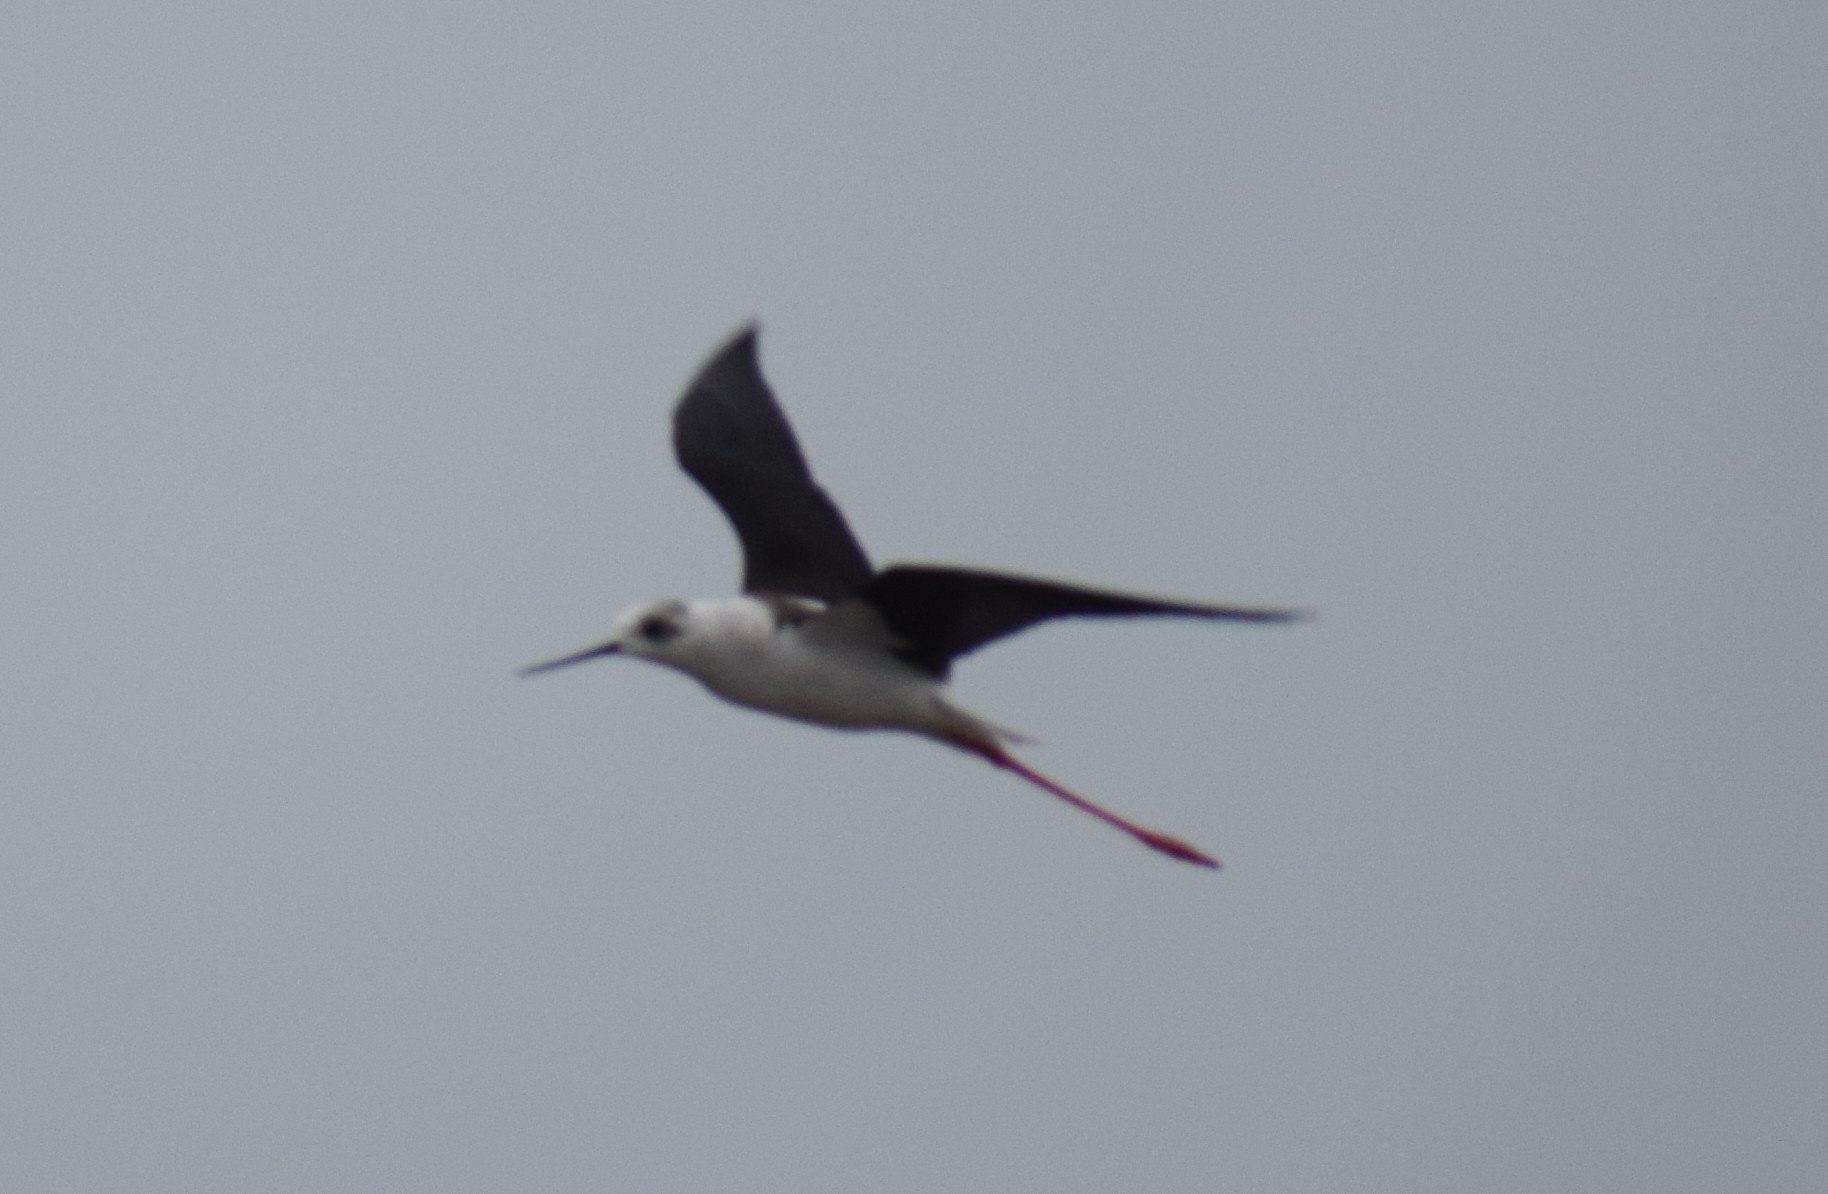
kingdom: Animalia
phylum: Chordata
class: Aves
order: Charadriiformes
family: Recurvirostridae
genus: Himantopus
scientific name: Himantopus himantopus
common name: Black-winged stilt
